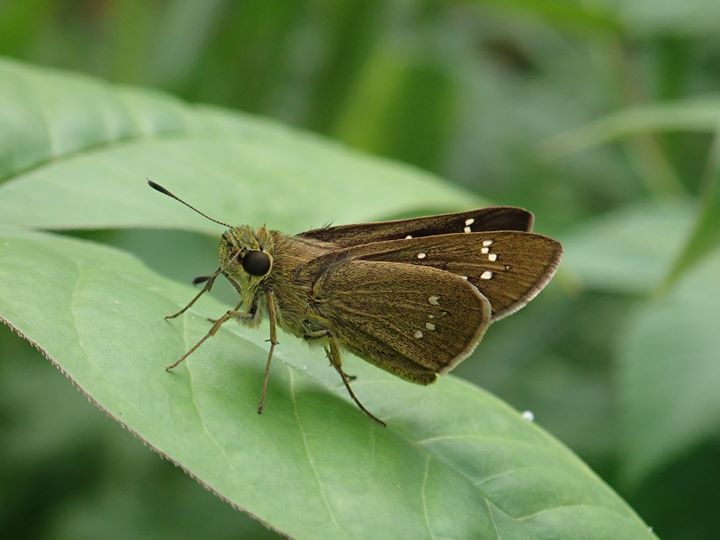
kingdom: Animalia
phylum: Arthropoda
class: Insecta
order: Lepidoptera
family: Hesperiidae
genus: Borbo
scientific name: Borbo cinnara
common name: Formosan swift
